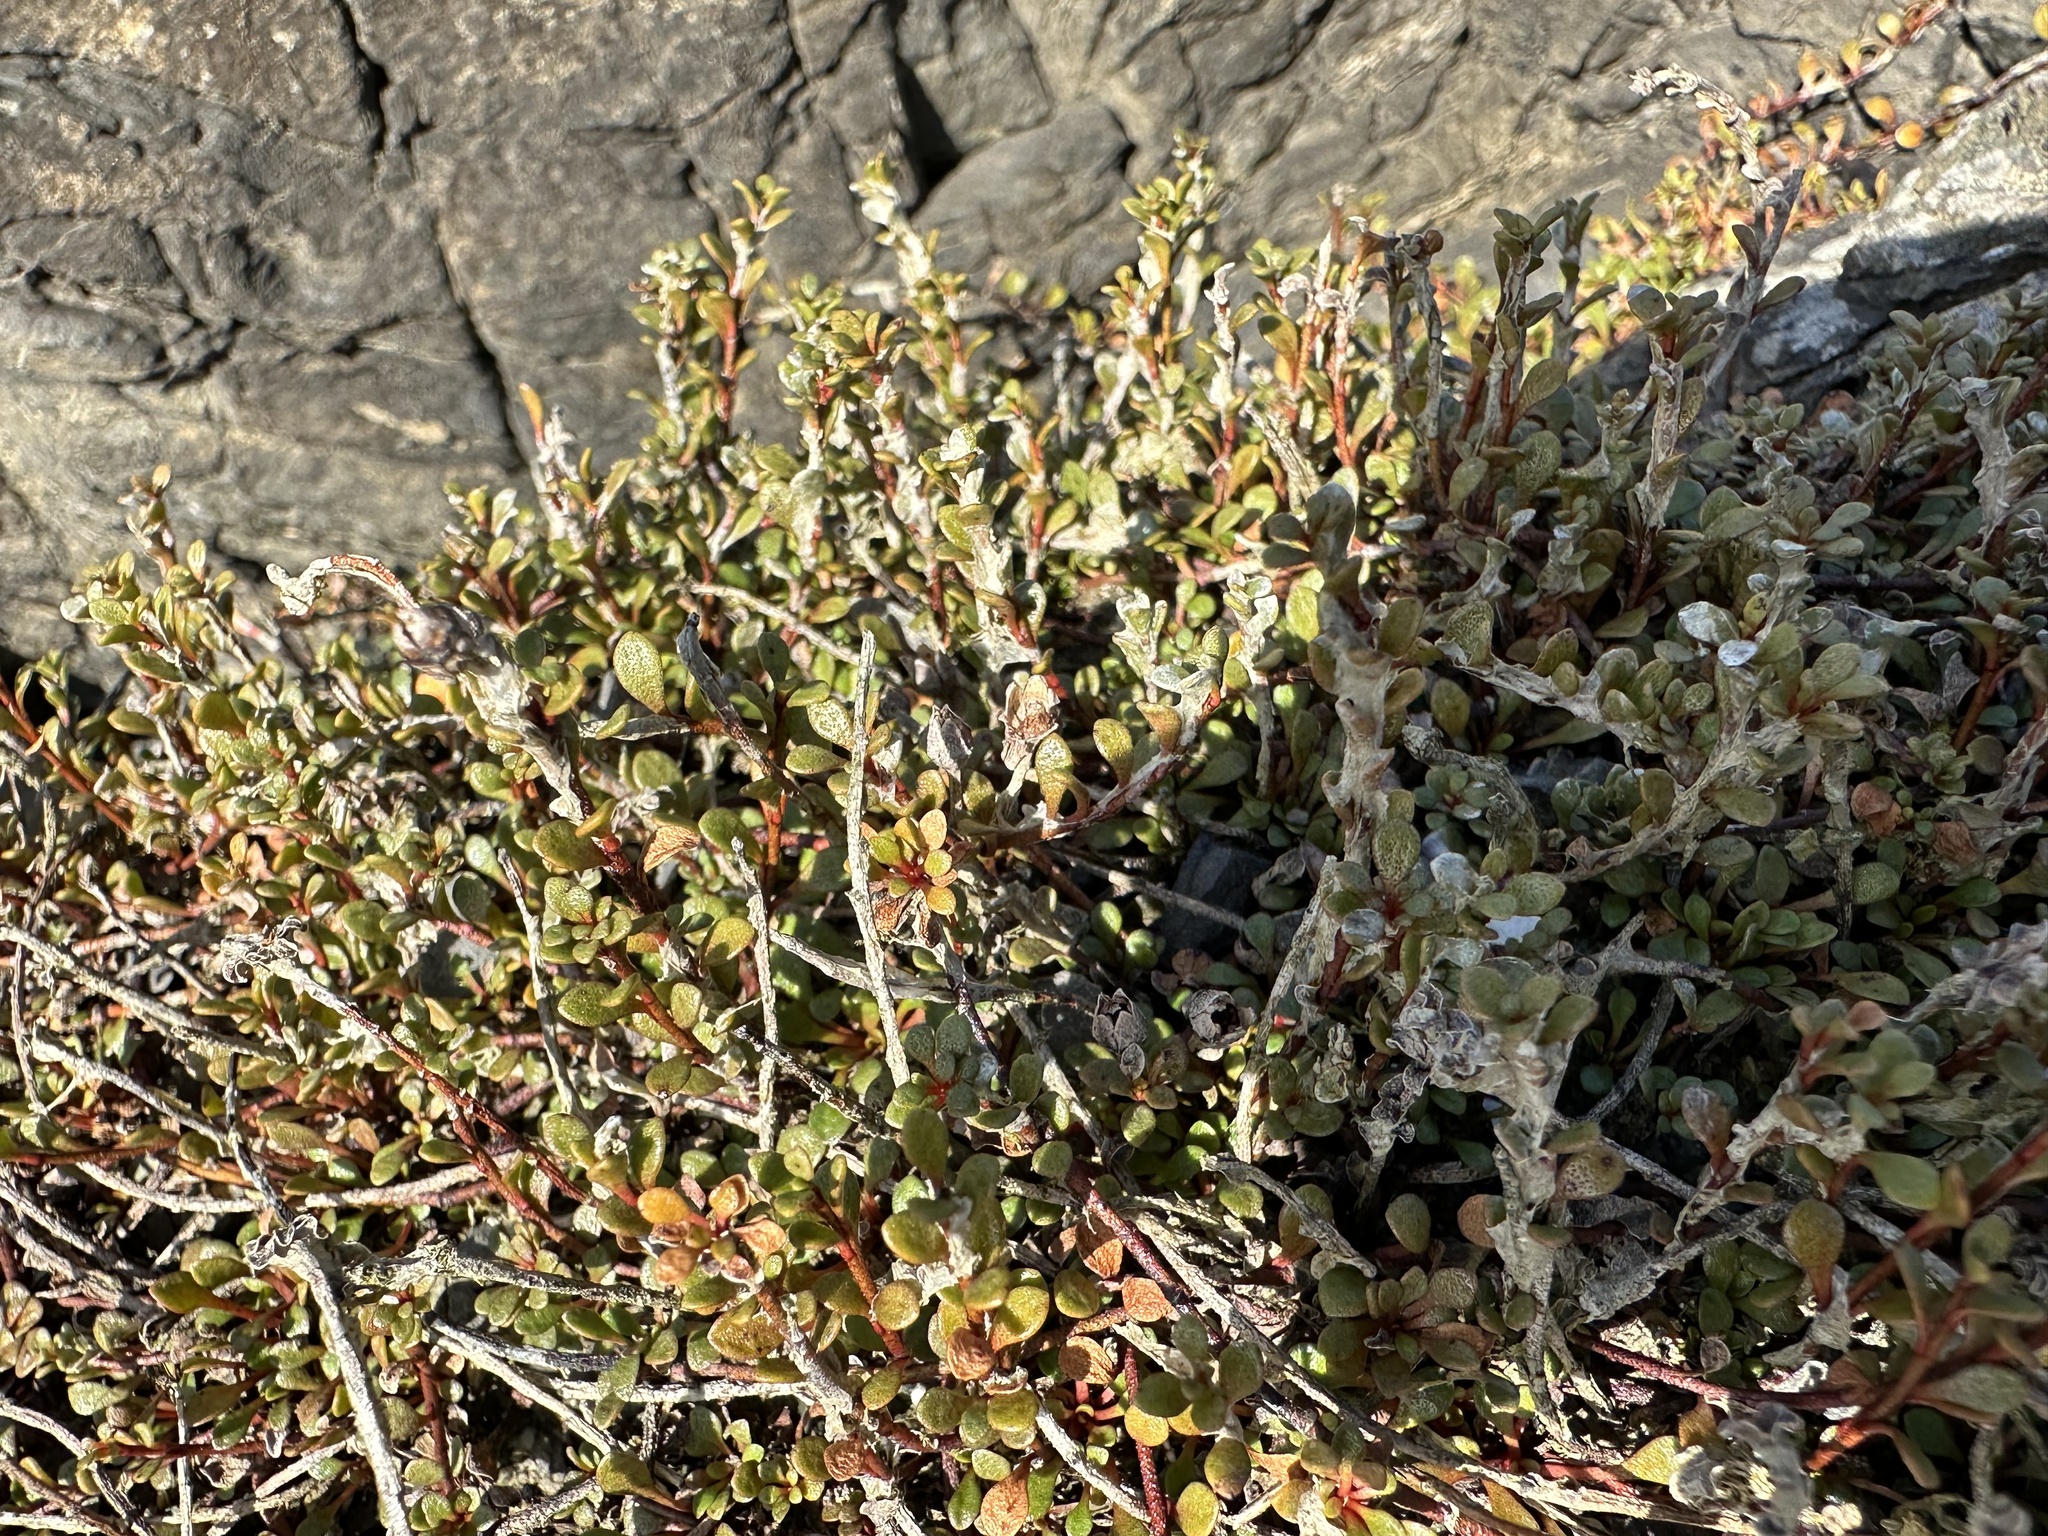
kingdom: Plantae
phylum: Tracheophyta
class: Magnoliopsida
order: Ericales
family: Primulaceae
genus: Samolus
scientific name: Samolus repens
